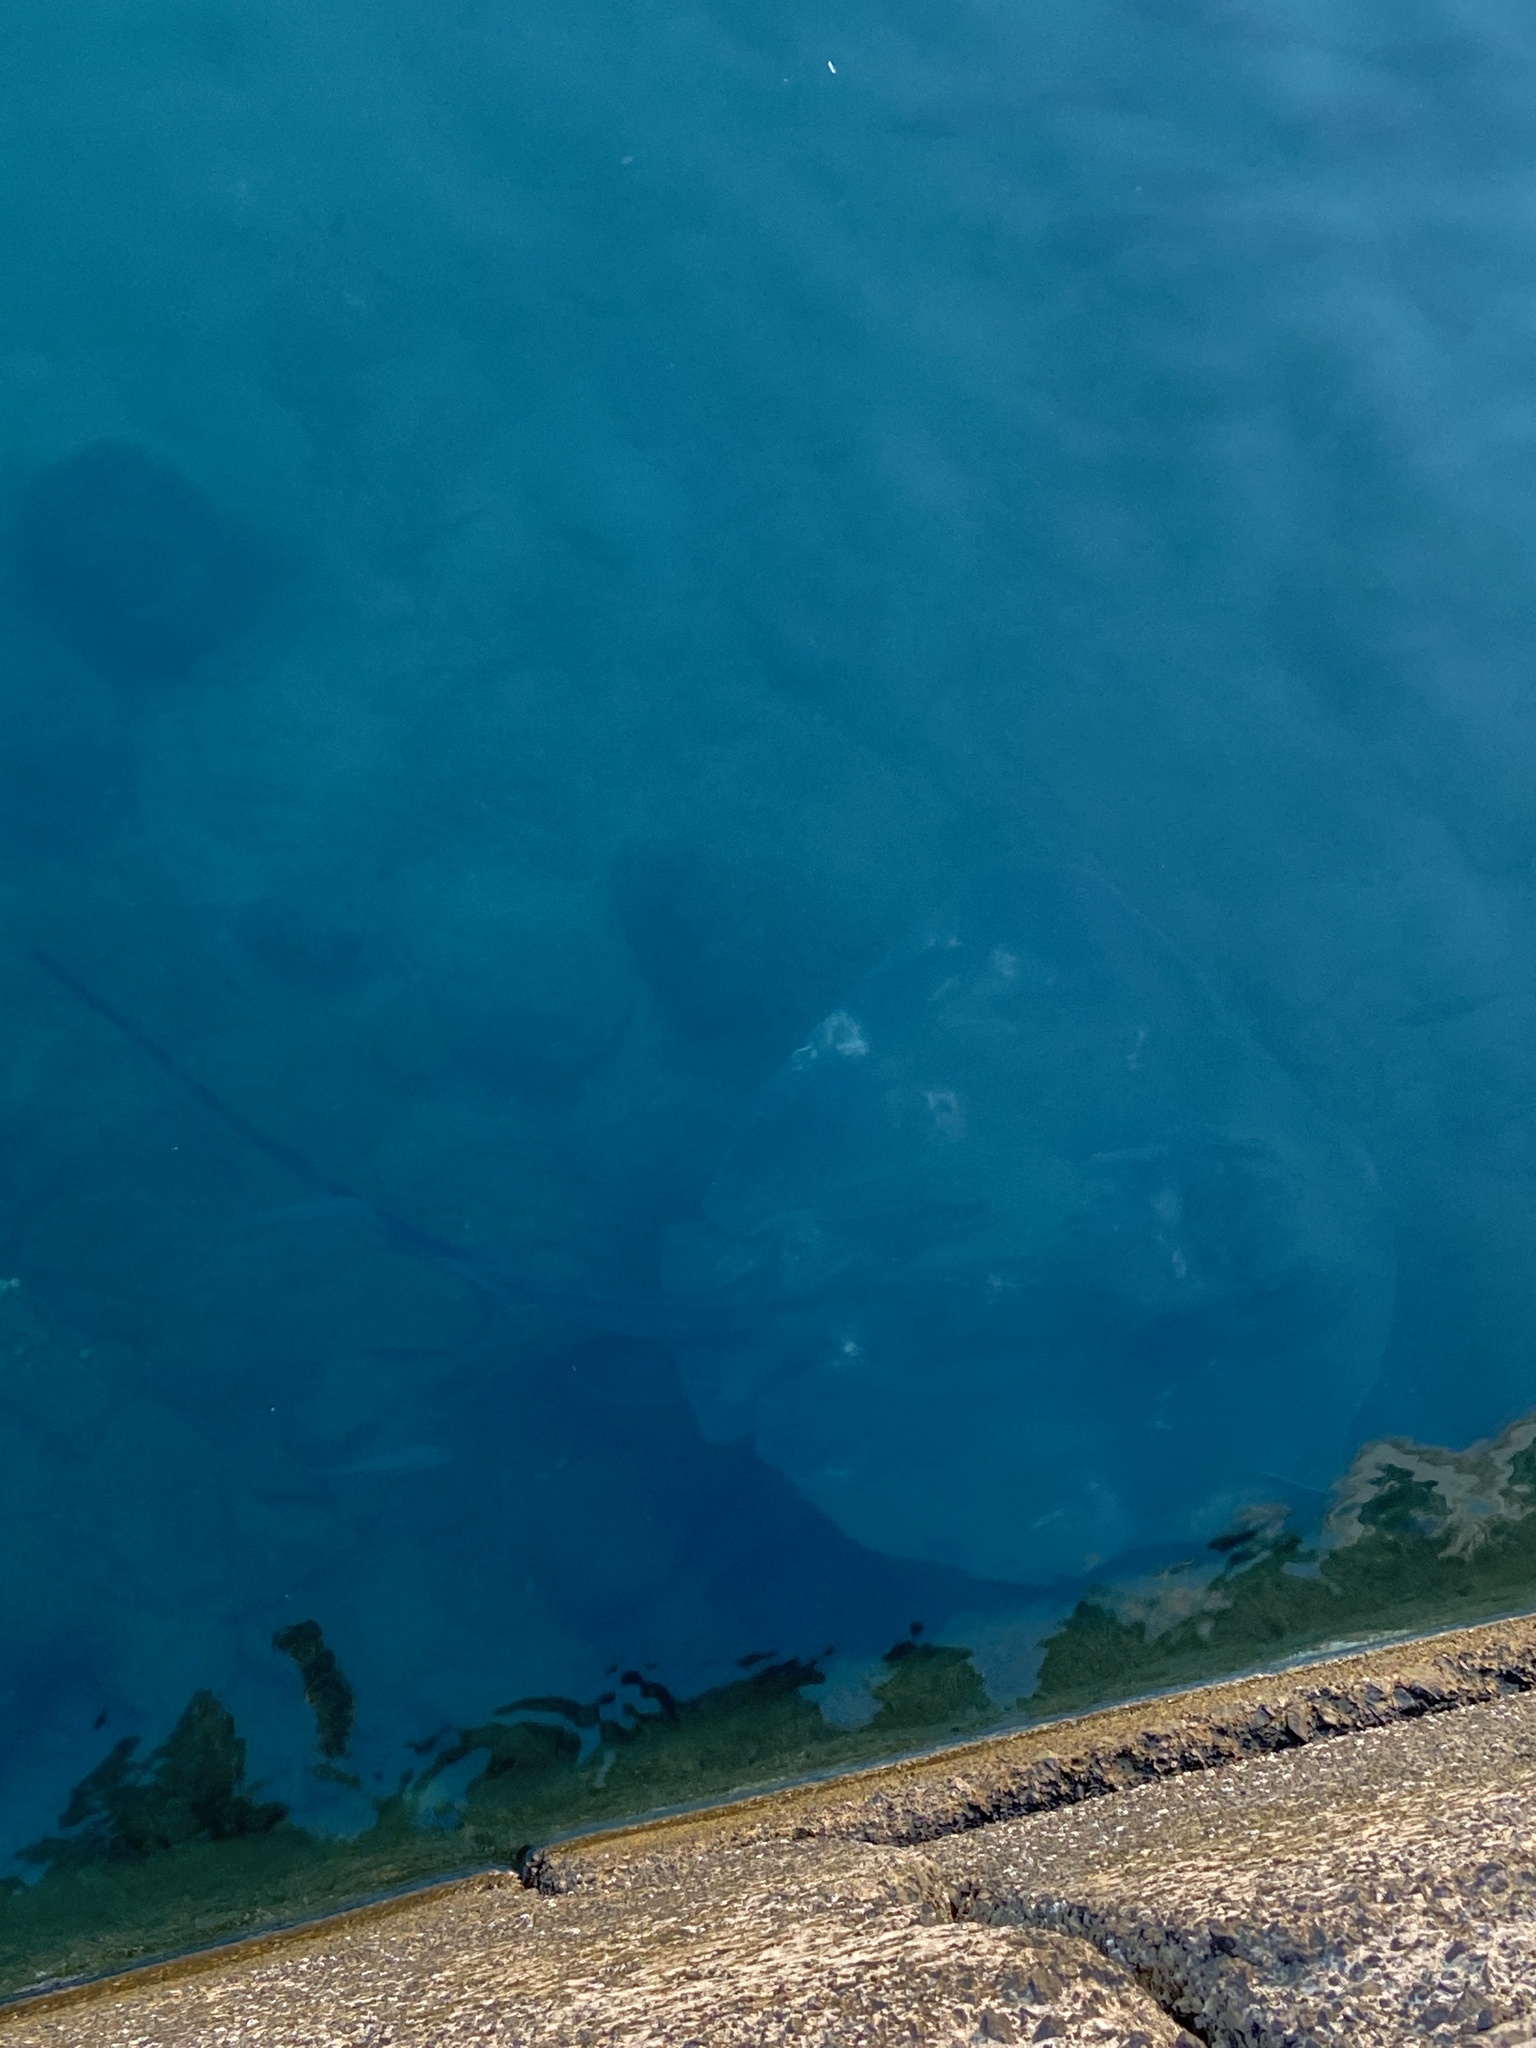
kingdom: Animalia
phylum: Chordata
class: Elasmobranchii
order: Myliobatiformes
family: Dasyatidae
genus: Bathytoshia
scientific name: Bathytoshia lata
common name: Brown stingray
